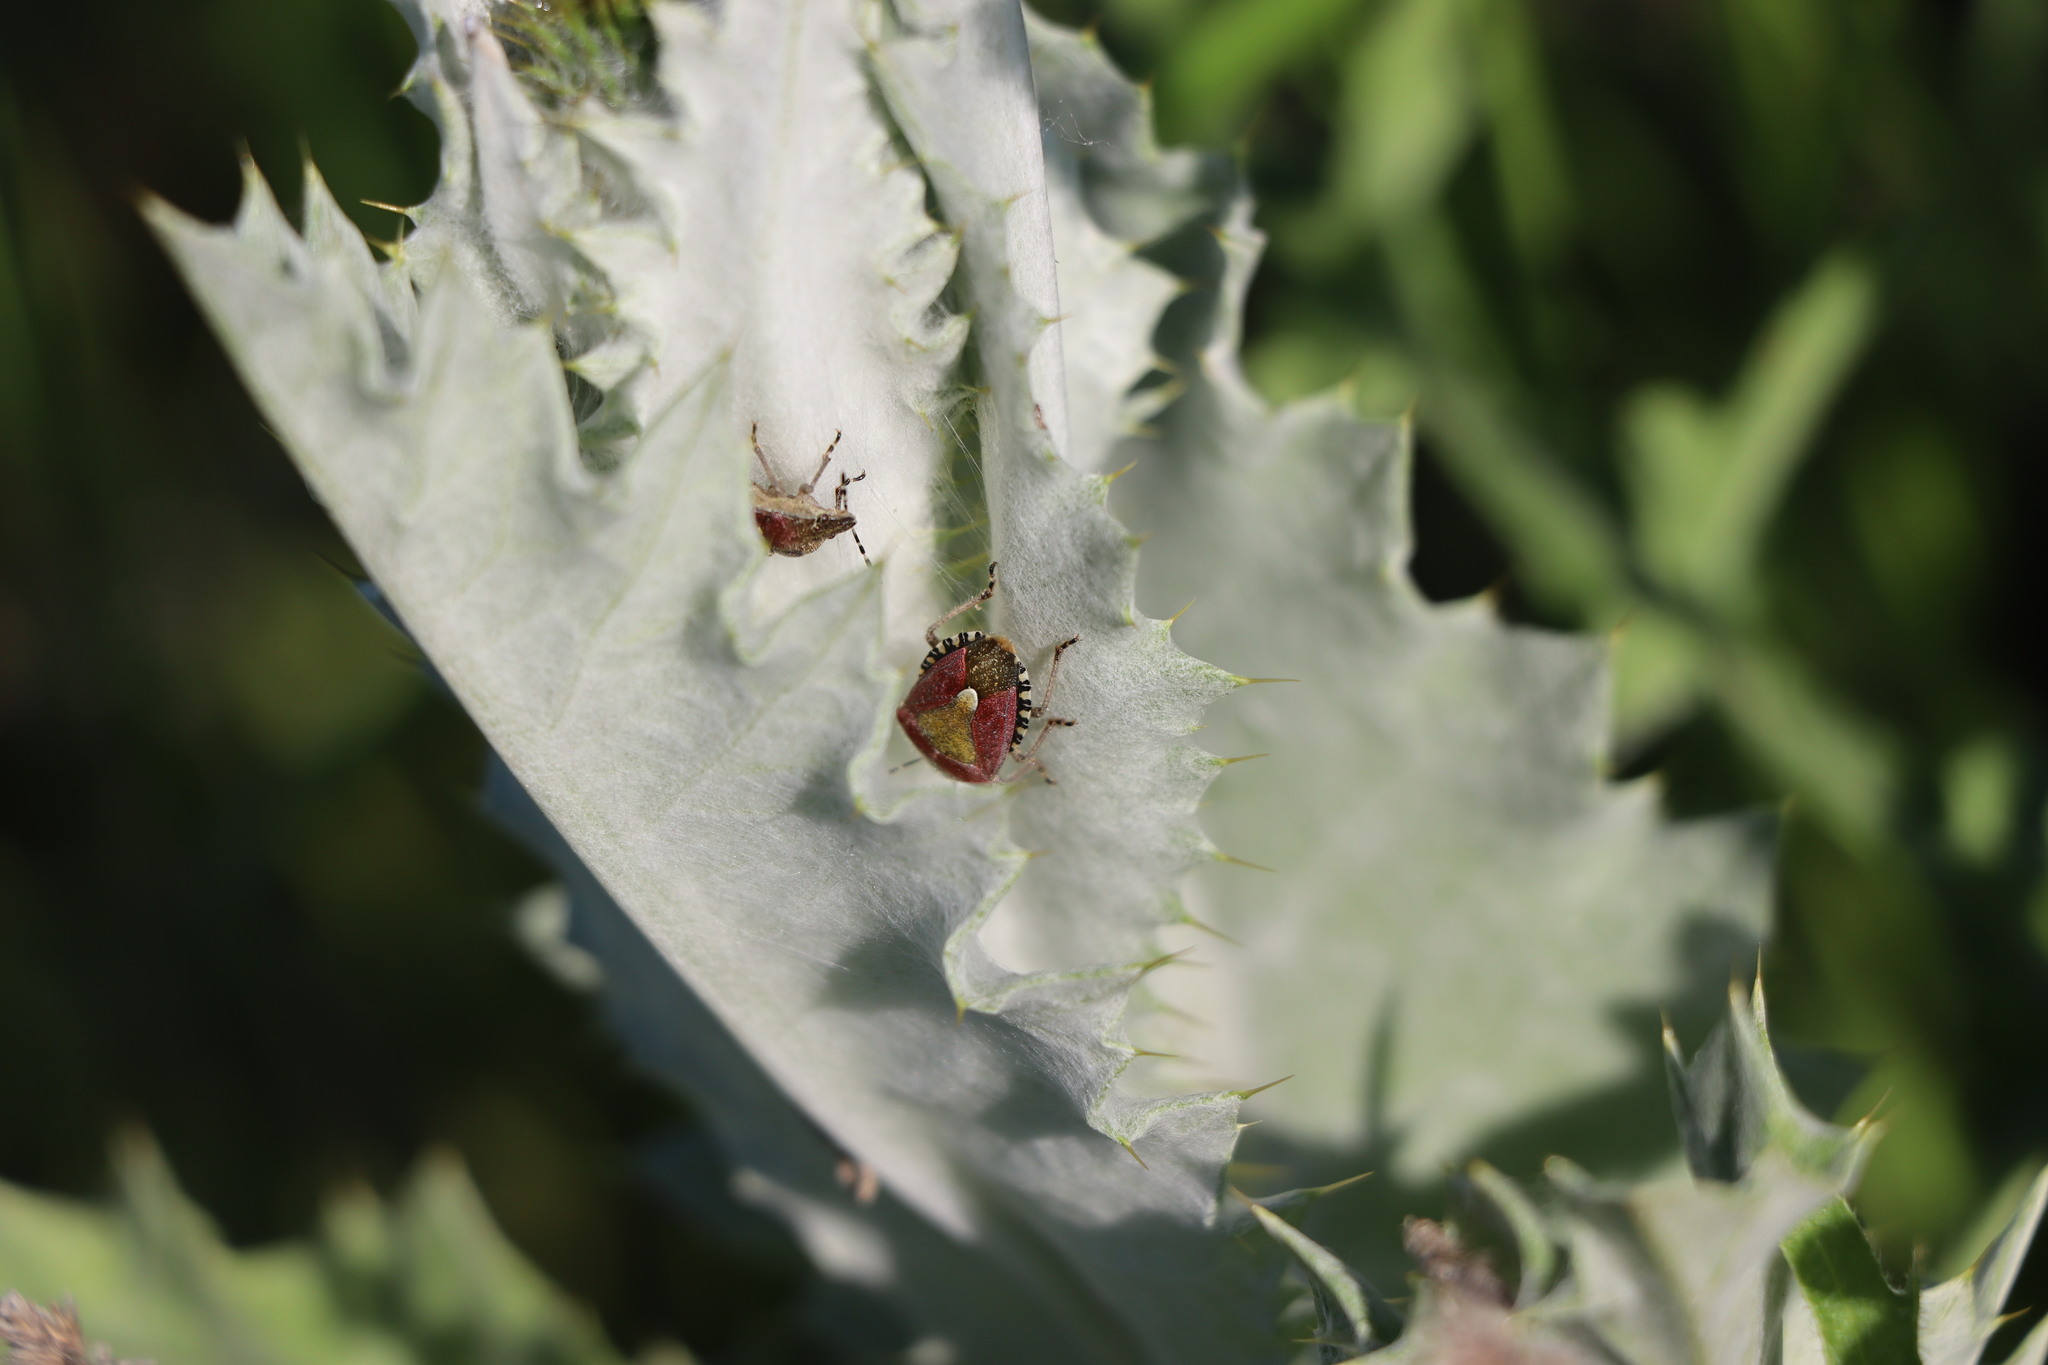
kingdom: Animalia
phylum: Arthropoda
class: Insecta
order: Hemiptera
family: Pentatomidae
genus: Dolycoris
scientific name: Dolycoris baccarum
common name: Sloe bug
